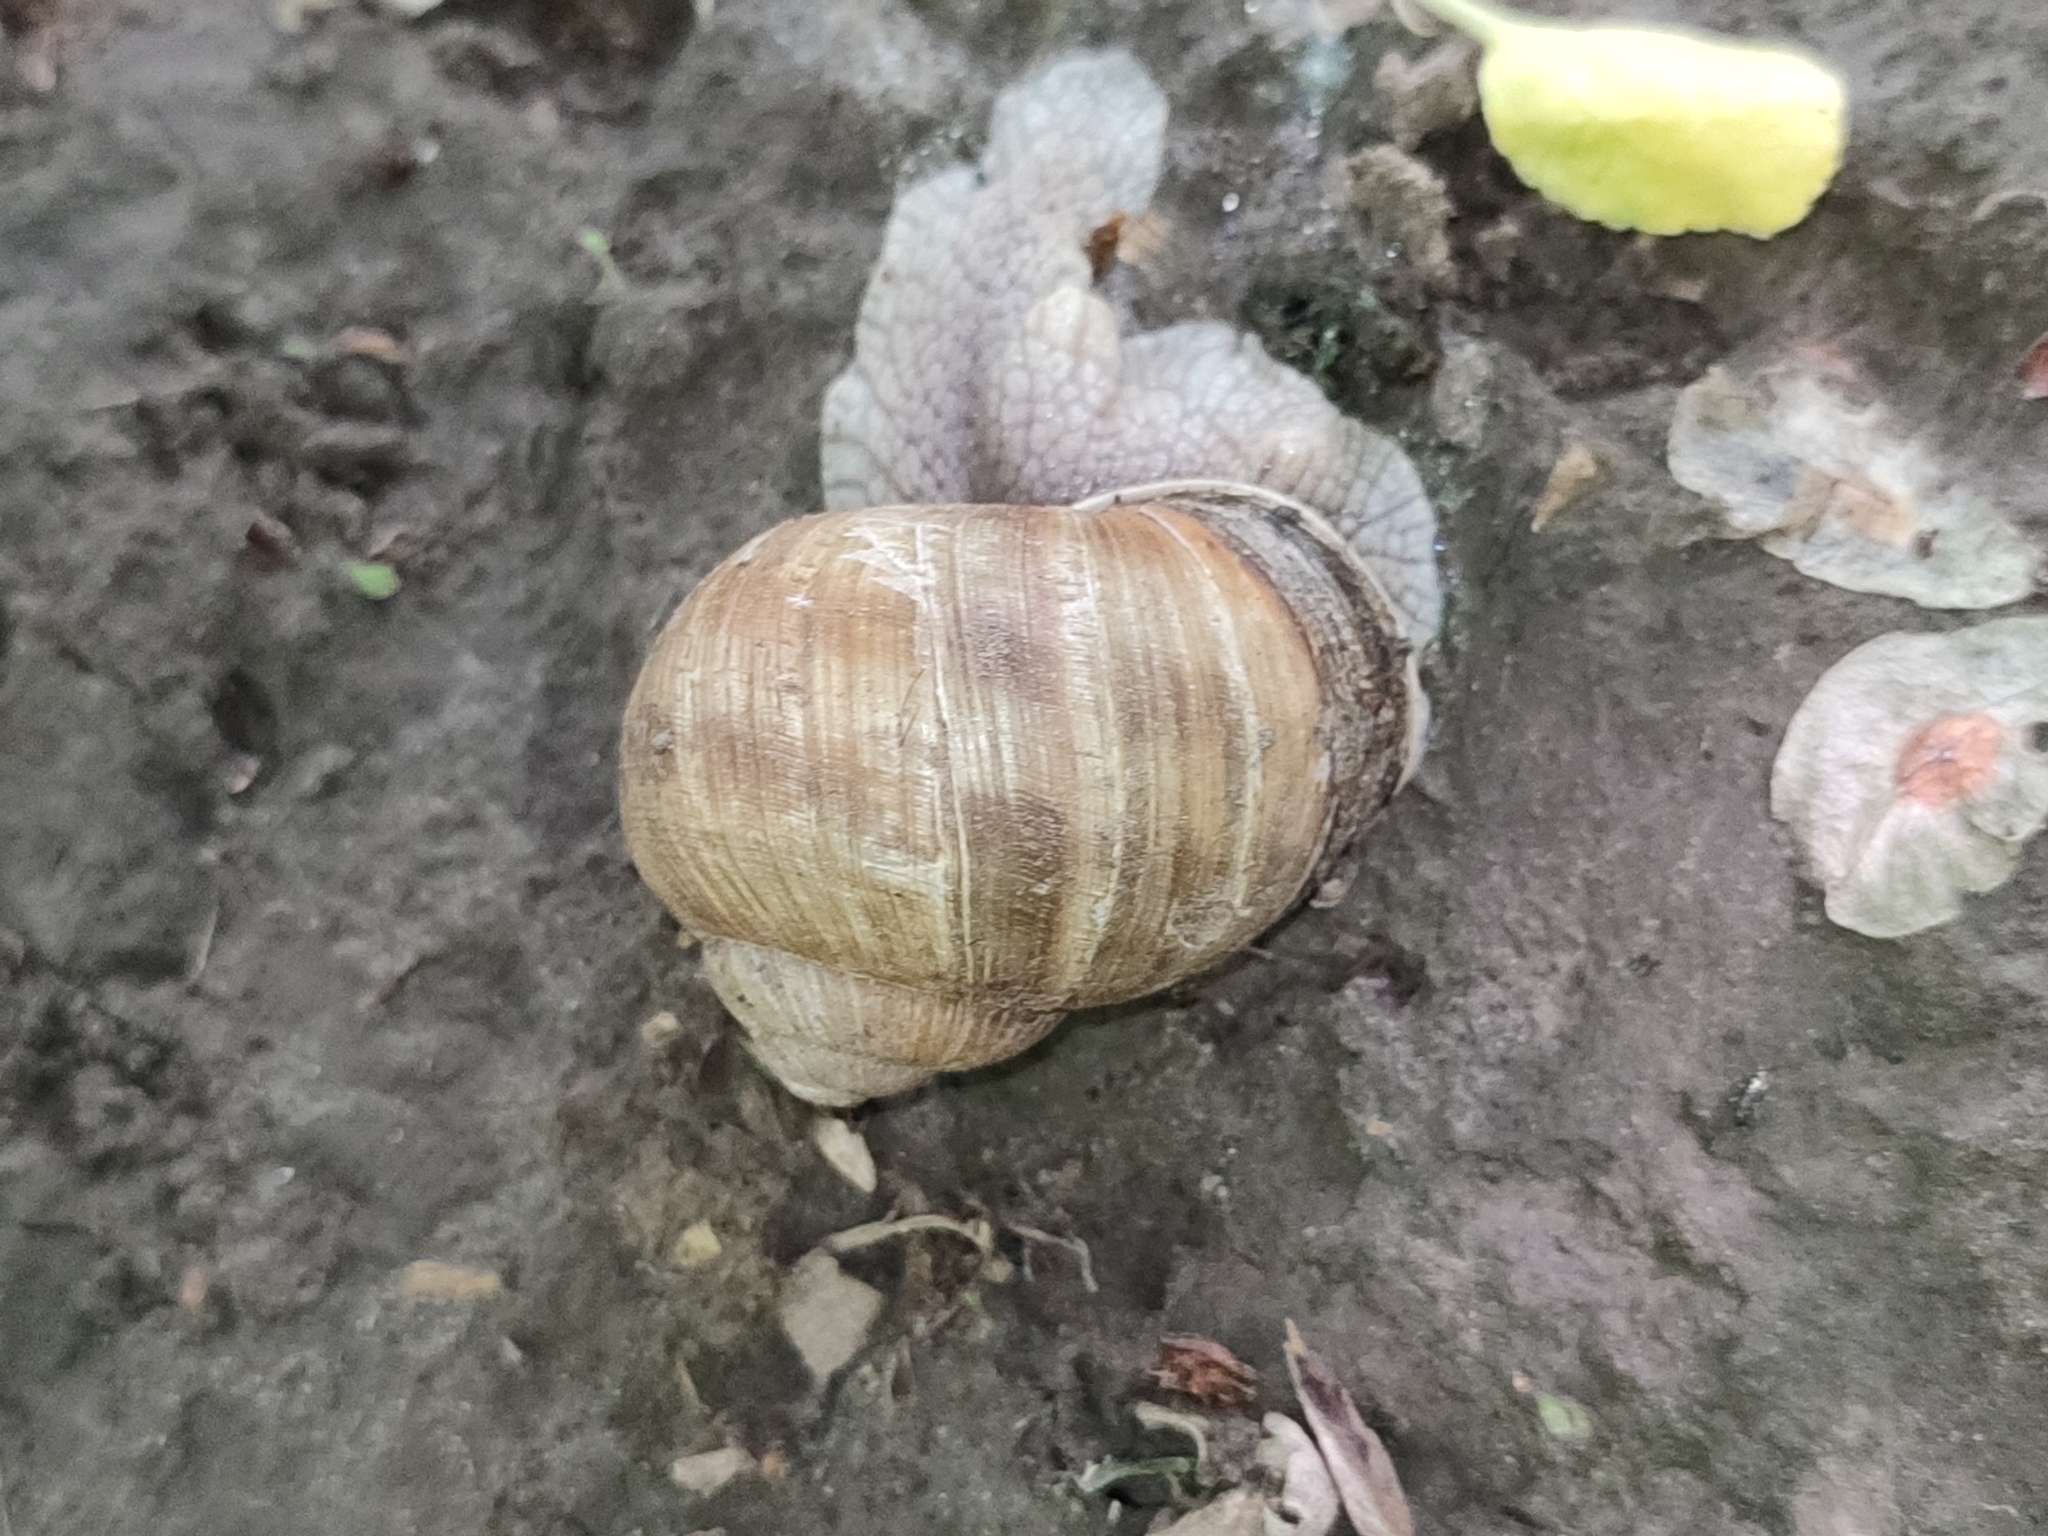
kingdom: Animalia
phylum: Mollusca
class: Gastropoda
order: Stylommatophora
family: Helicidae
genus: Helix
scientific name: Helix pomatia
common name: Roman snail
